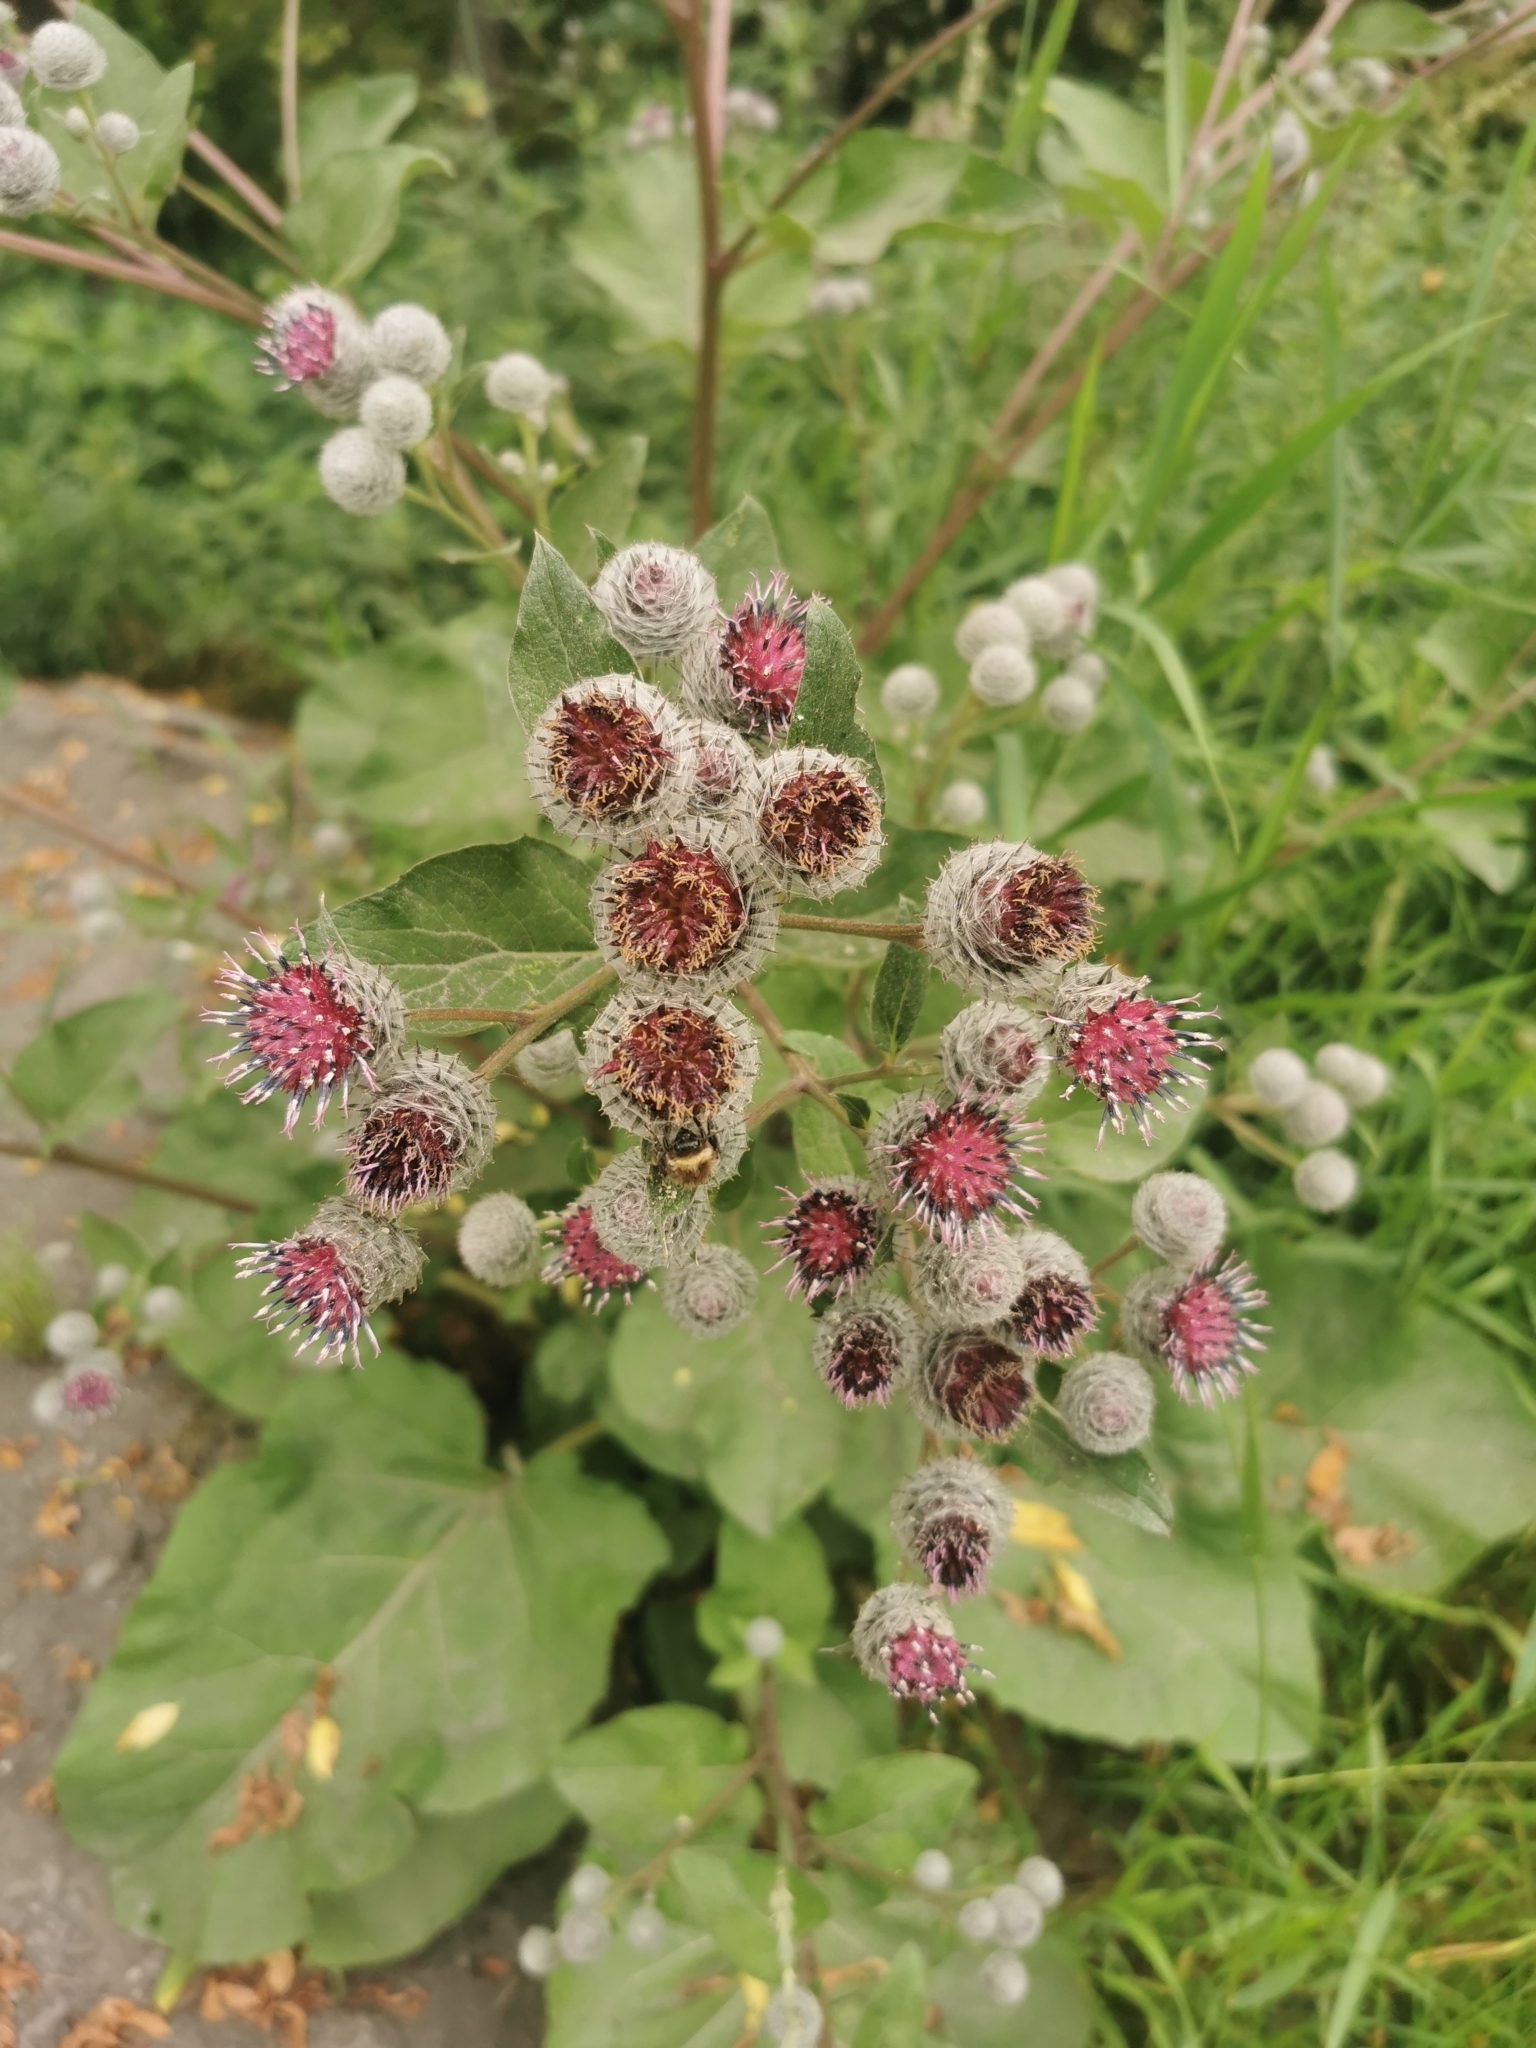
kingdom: Plantae
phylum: Tracheophyta
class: Magnoliopsida
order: Asterales
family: Asteraceae
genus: Arctium
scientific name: Arctium tomentosum
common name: Woolly burdock
